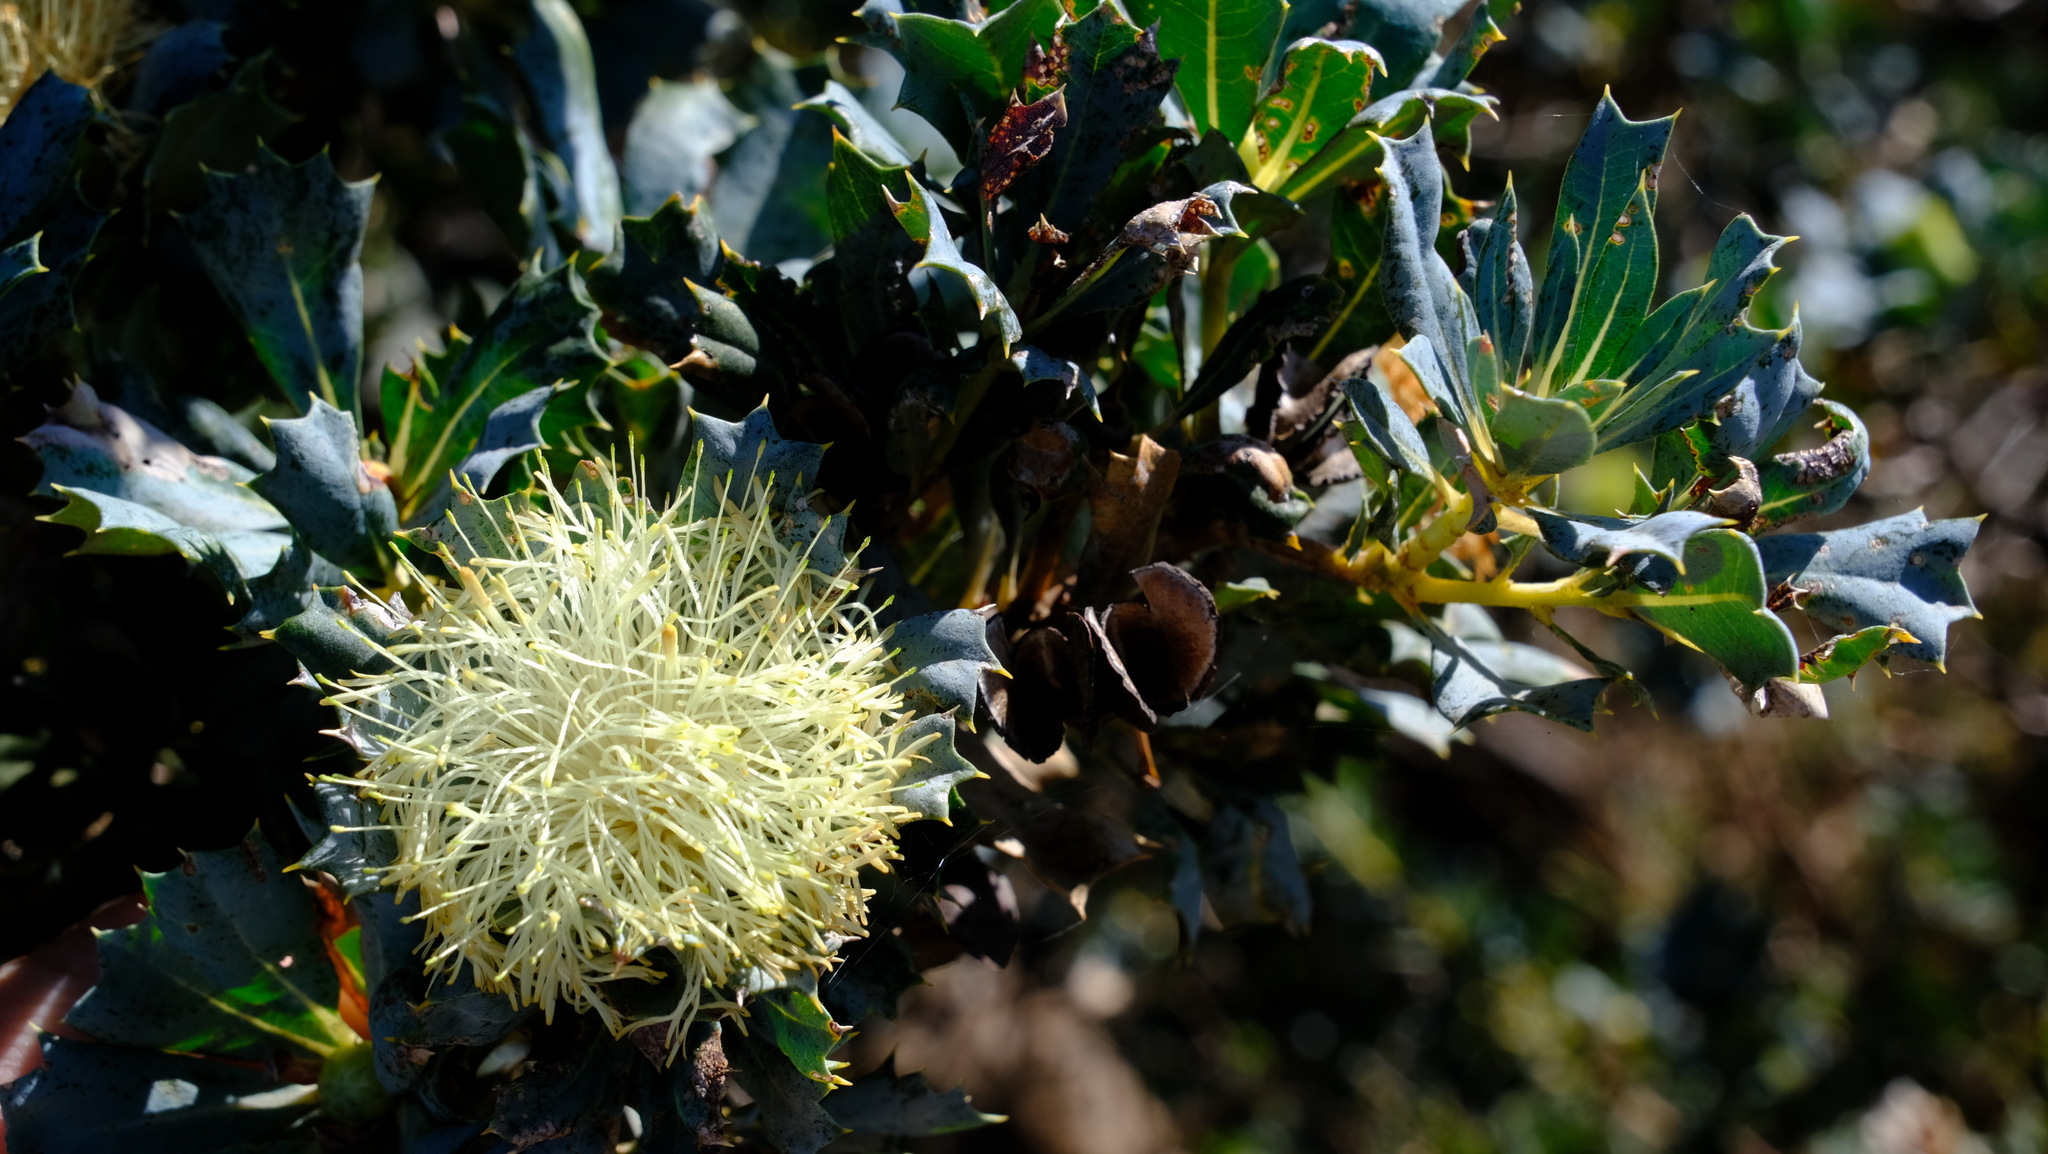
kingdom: Plantae
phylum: Tracheophyta
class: Magnoliopsida
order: Proteales
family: Proteaceae
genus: Banksia
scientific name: Banksia sessilis
